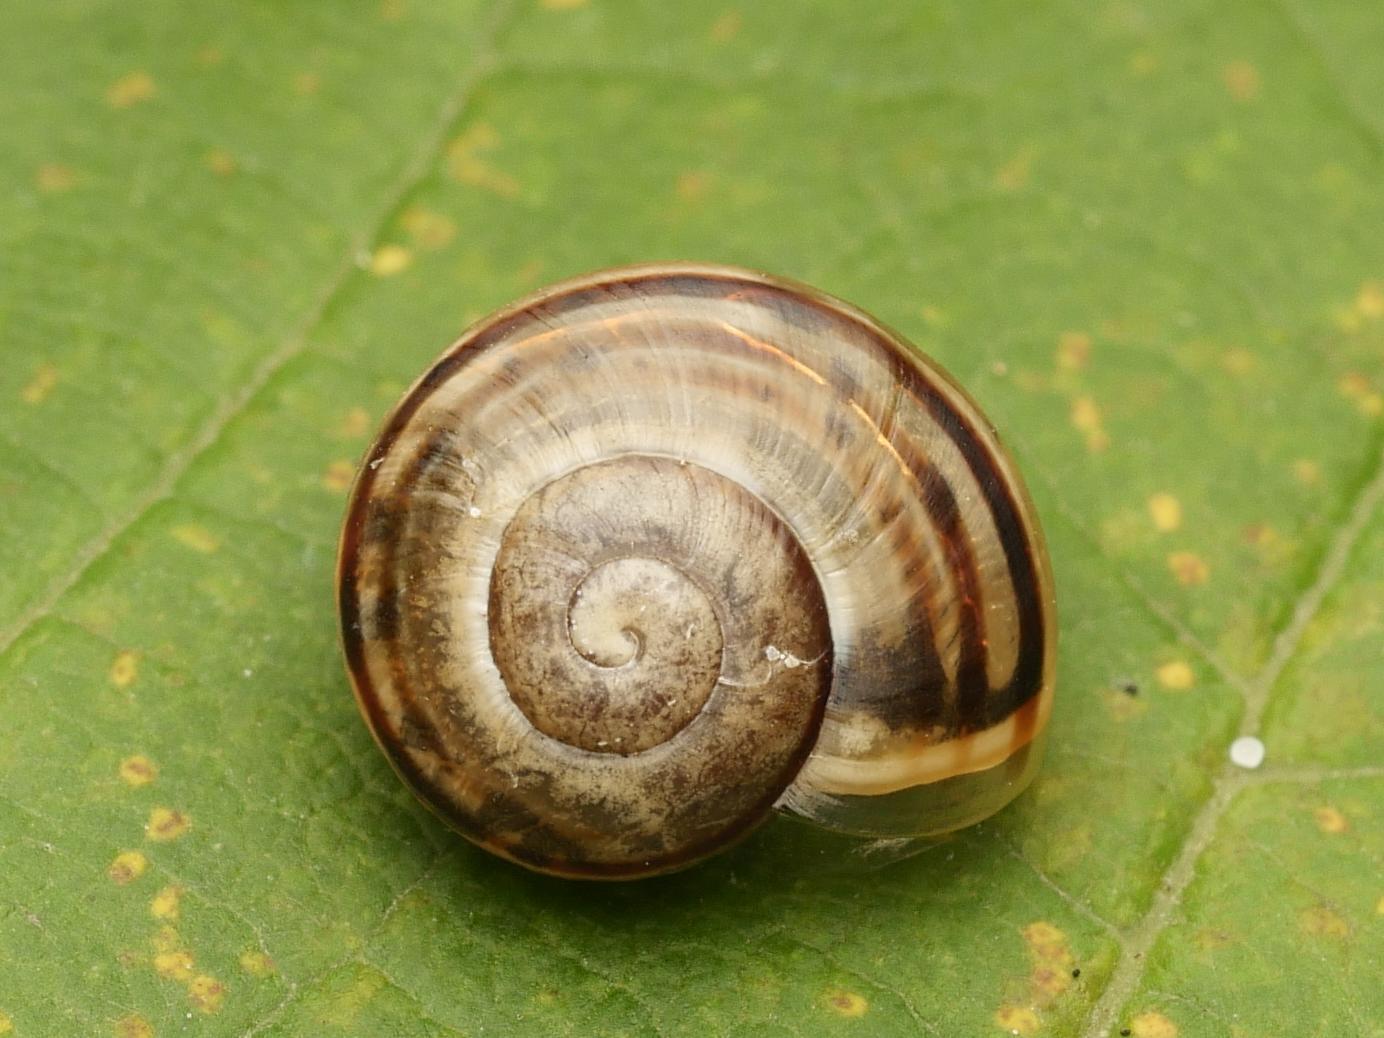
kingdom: Animalia
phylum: Mollusca
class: Gastropoda
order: Stylommatophora
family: Helicidae
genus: Cepaea
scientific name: Cepaea
